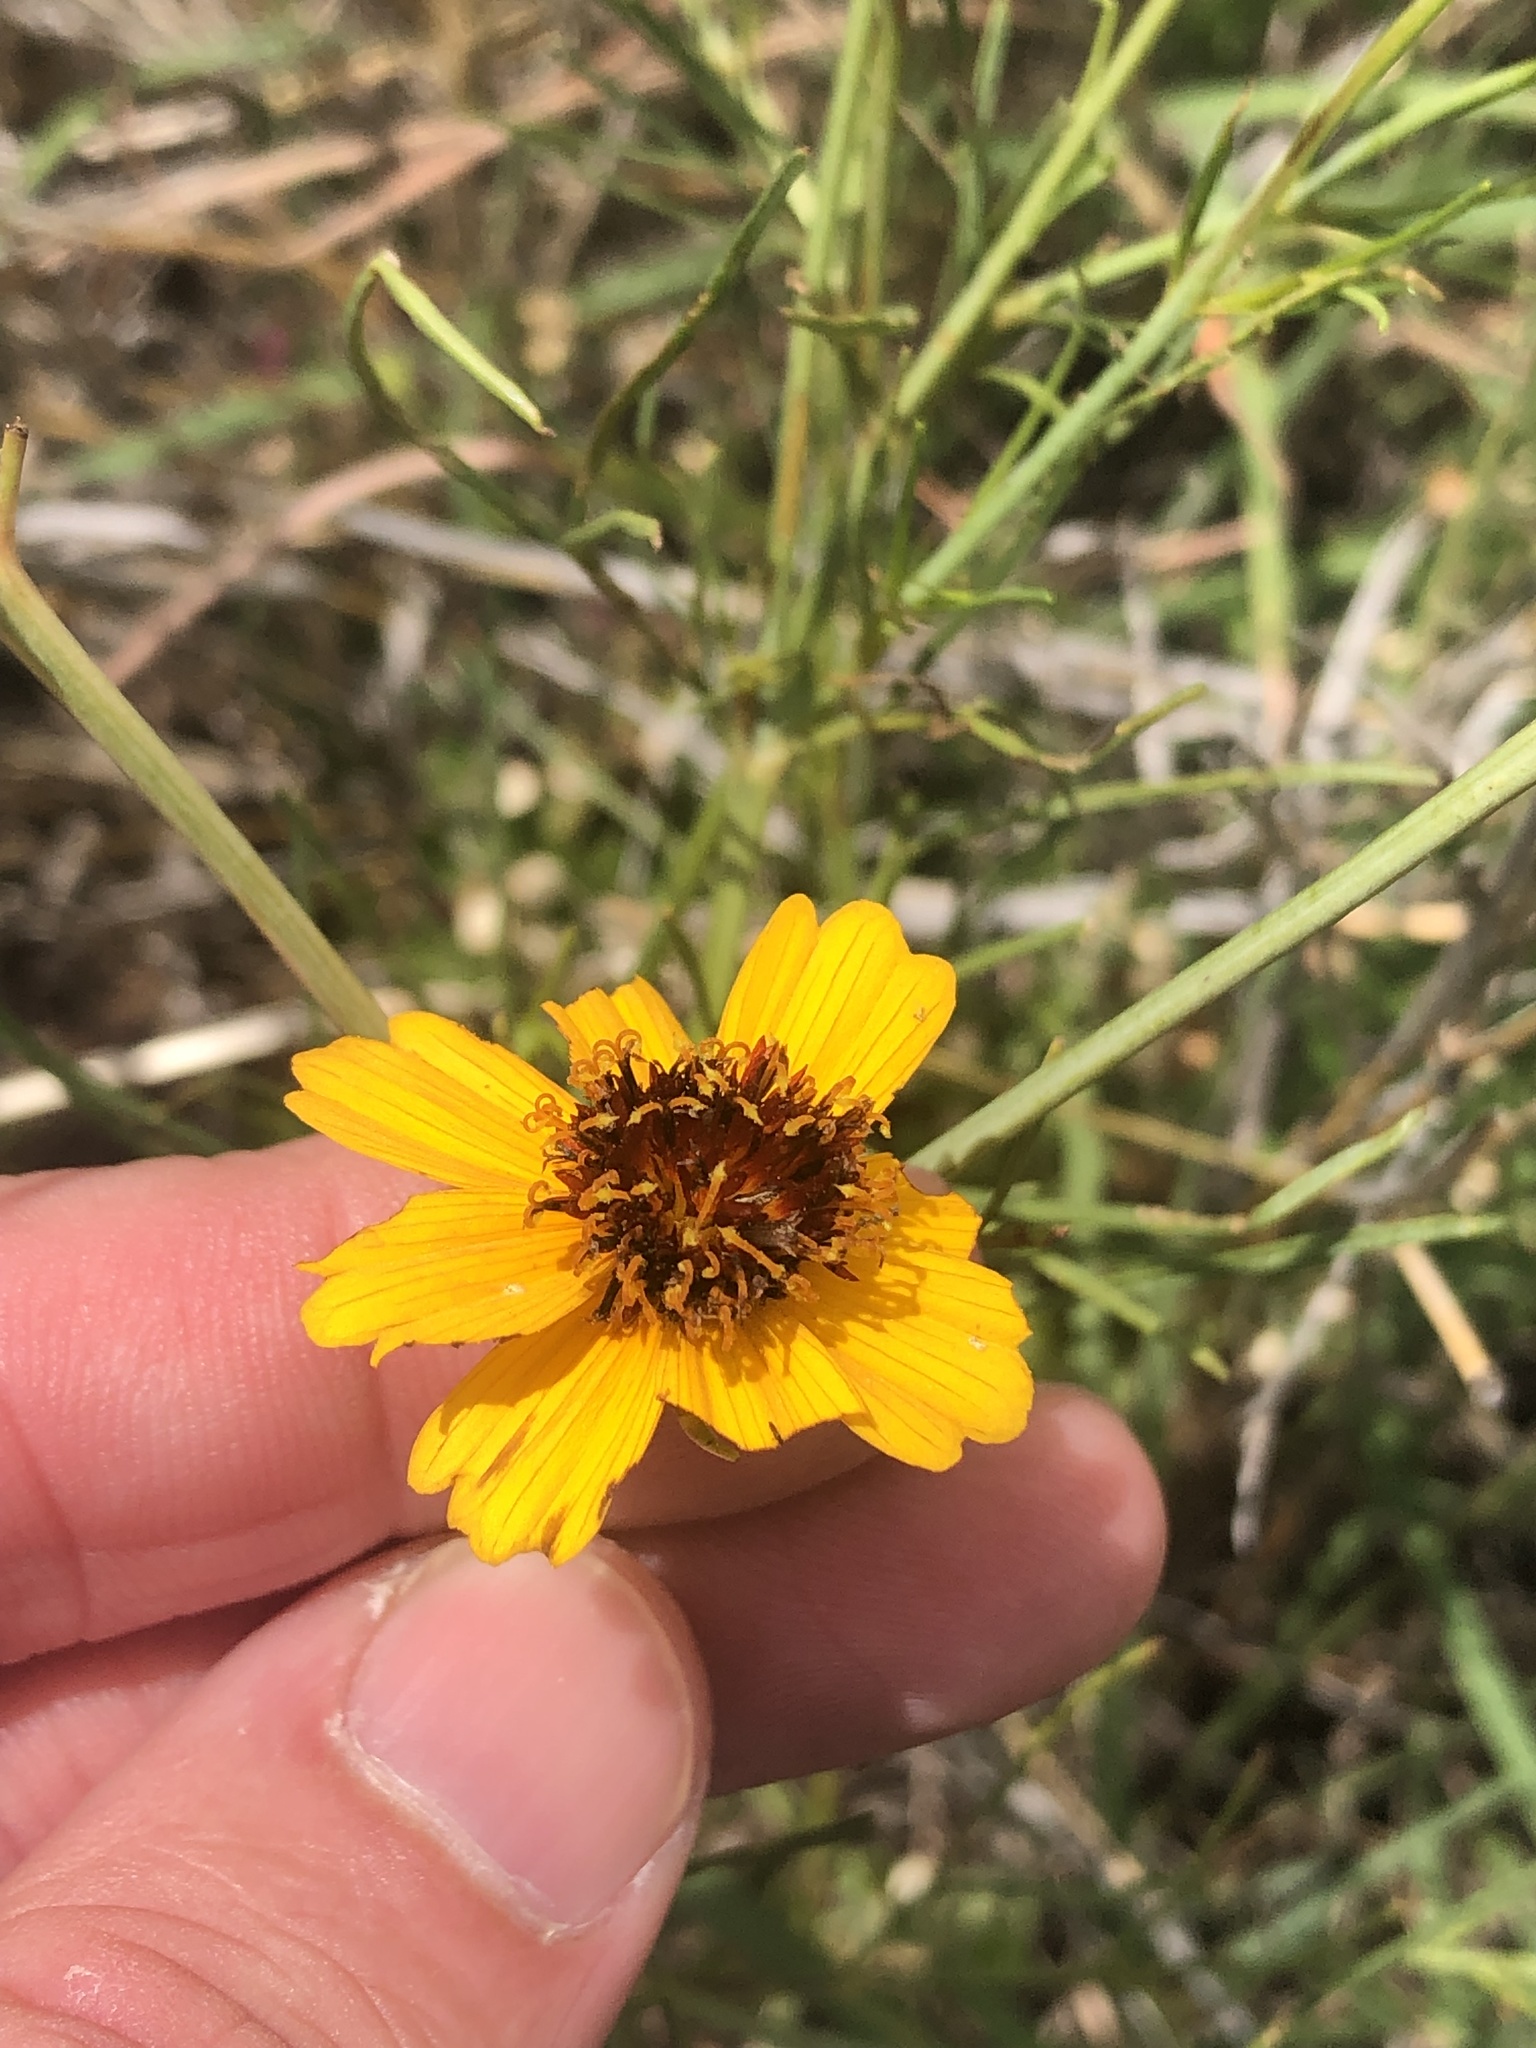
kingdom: Plantae
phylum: Tracheophyta
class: Magnoliopsida
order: Asterales
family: Asteraceae
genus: Thelesperma
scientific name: Thelesperma filifolium
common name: Stiff greenthread
